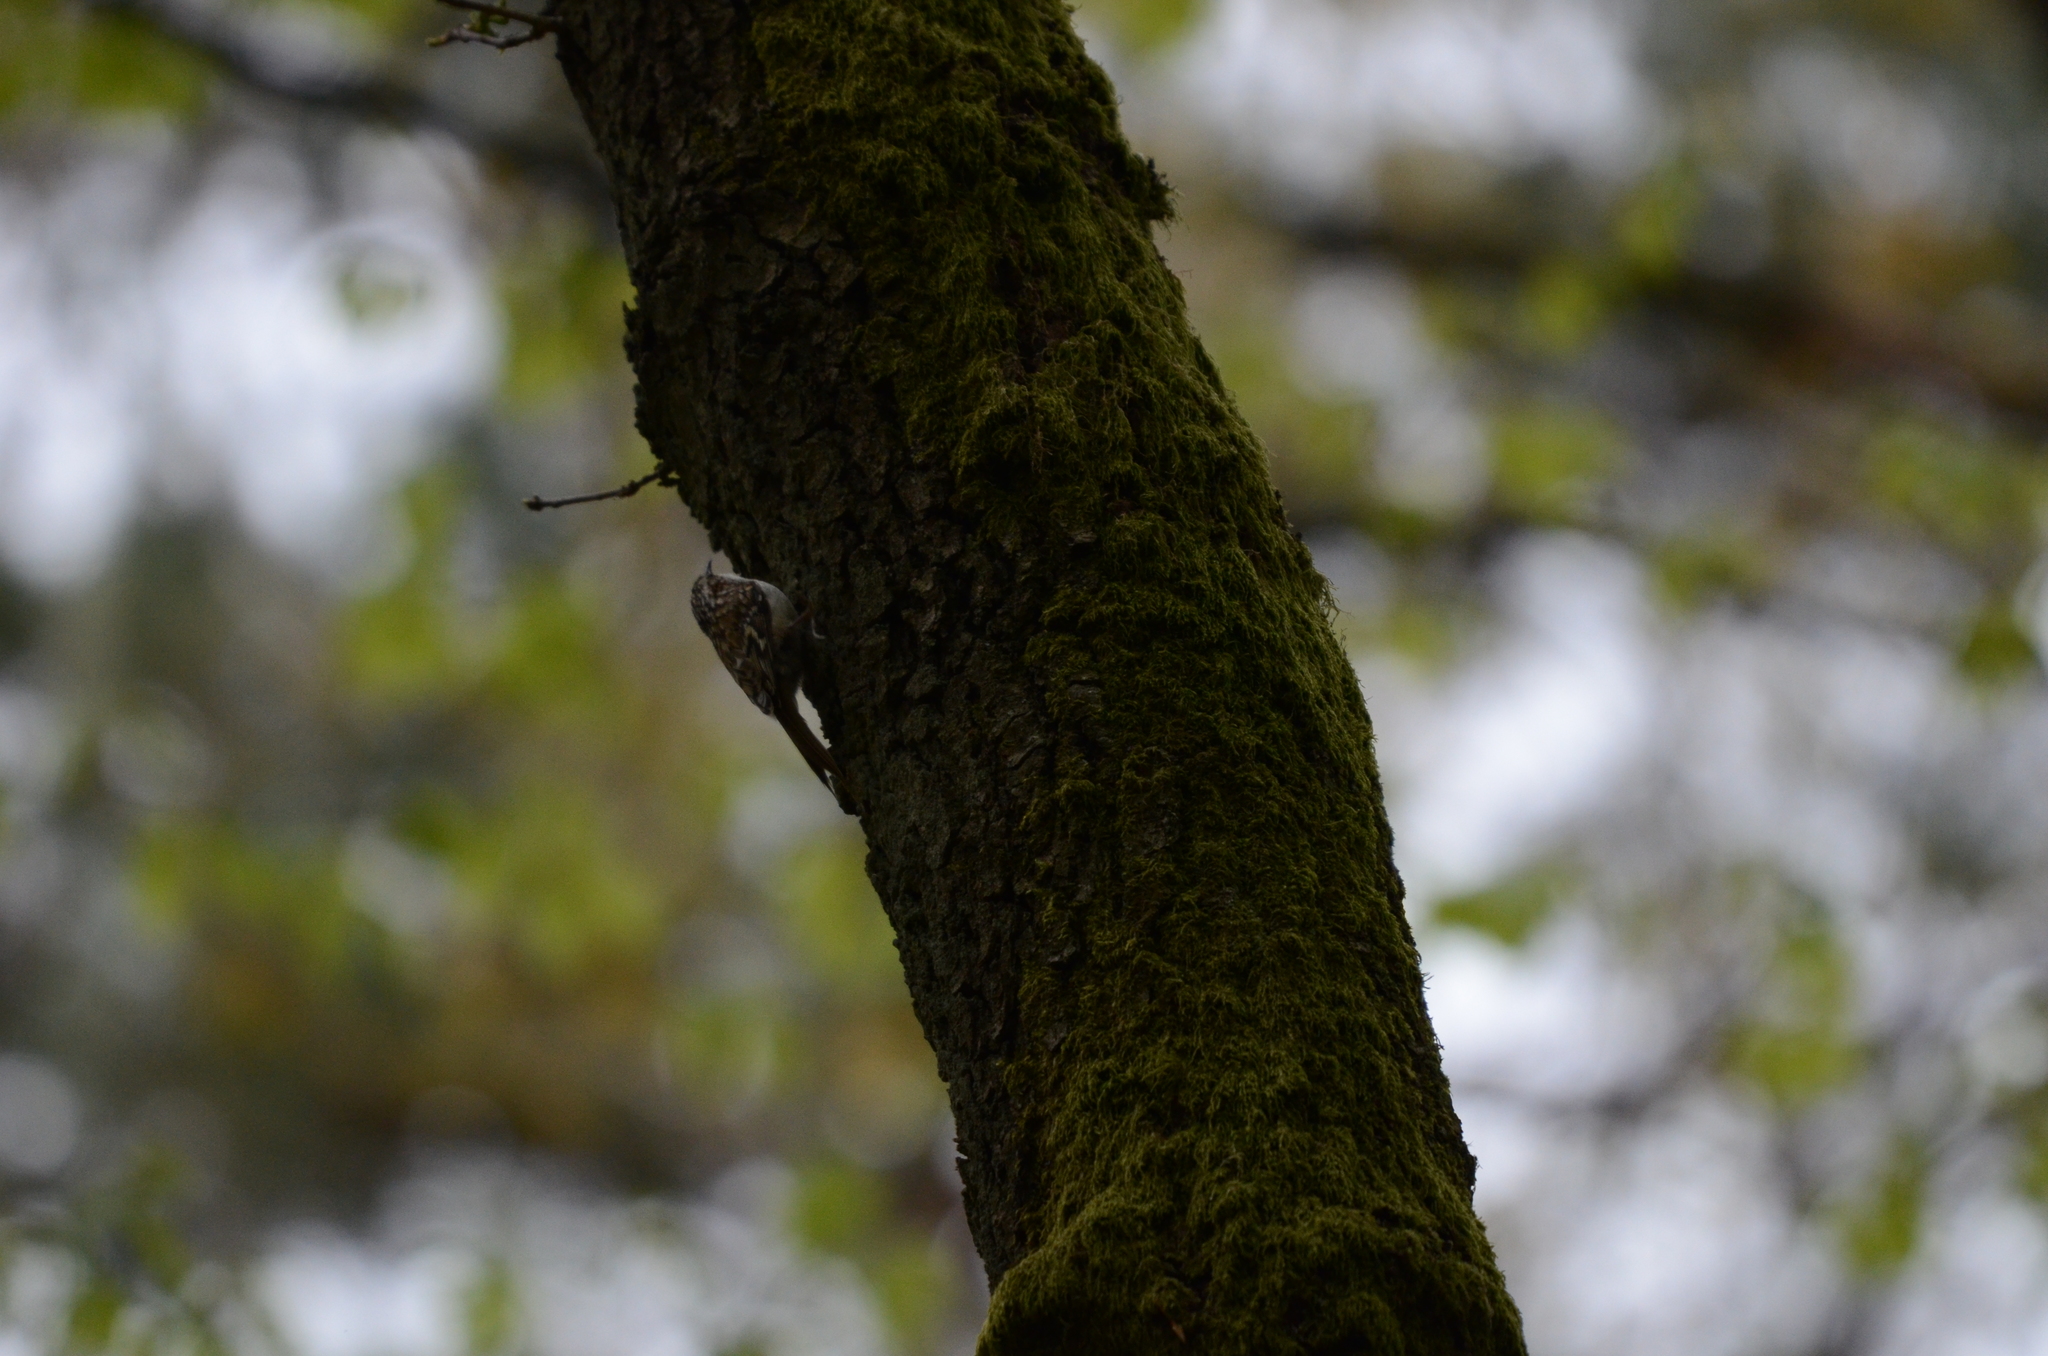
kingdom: Animalia
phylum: Chordata
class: Aves
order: Passeriformes
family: Certhiidae
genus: Certhia
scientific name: Certhia familiaris
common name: Eurasian treecreeper
